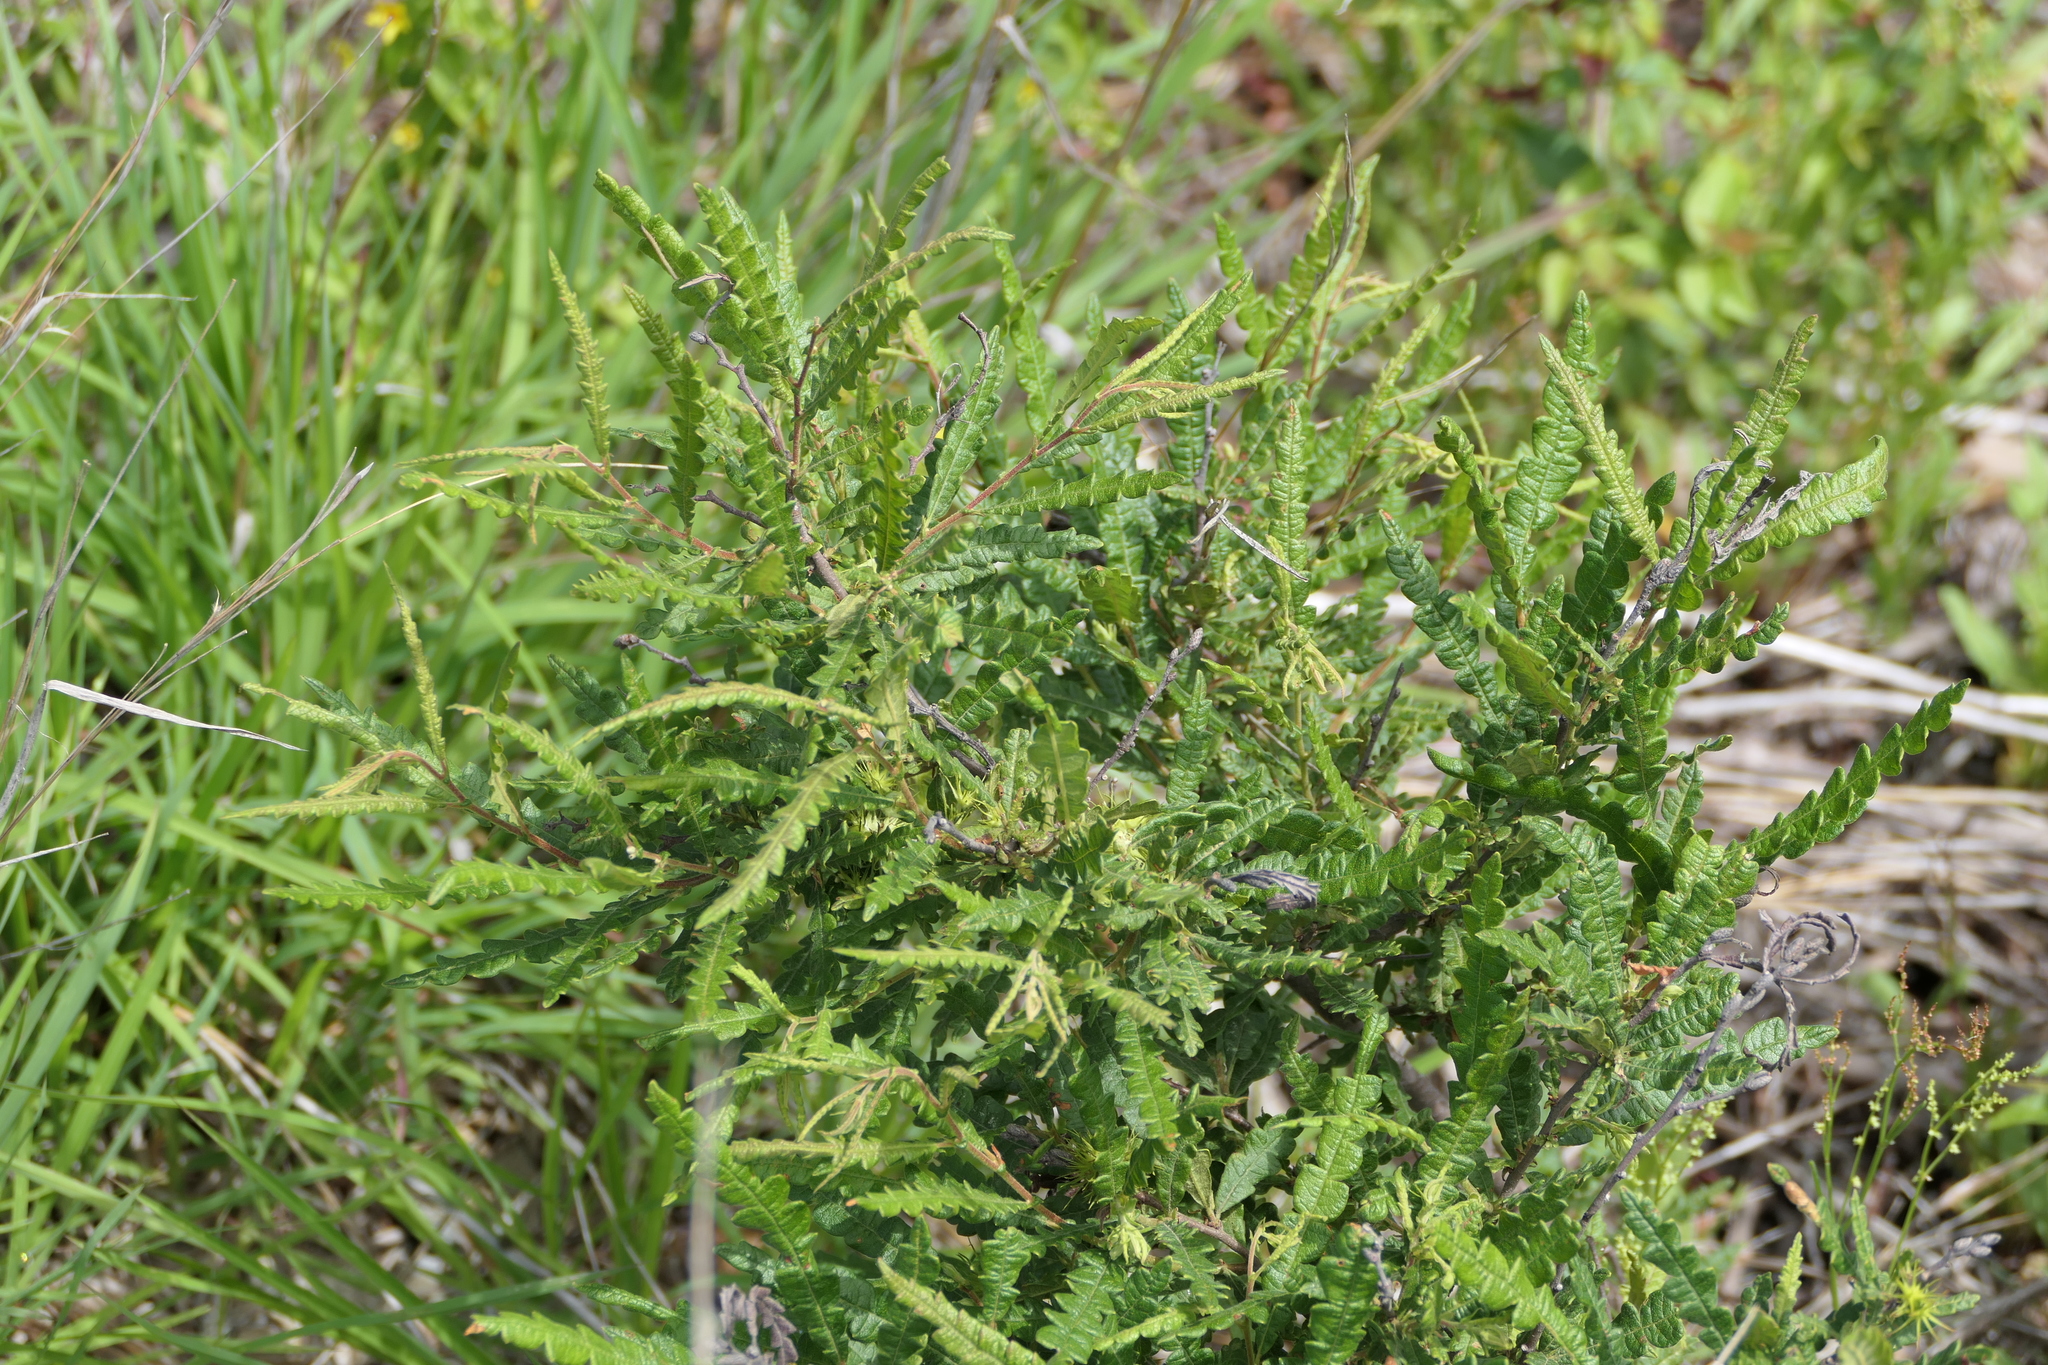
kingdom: Plantae
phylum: Tracheophyta
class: Magnoliopsida
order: Fagales
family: Myricaceae
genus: Comptonia
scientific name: Comptonia peregrina
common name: Sweet-fern
